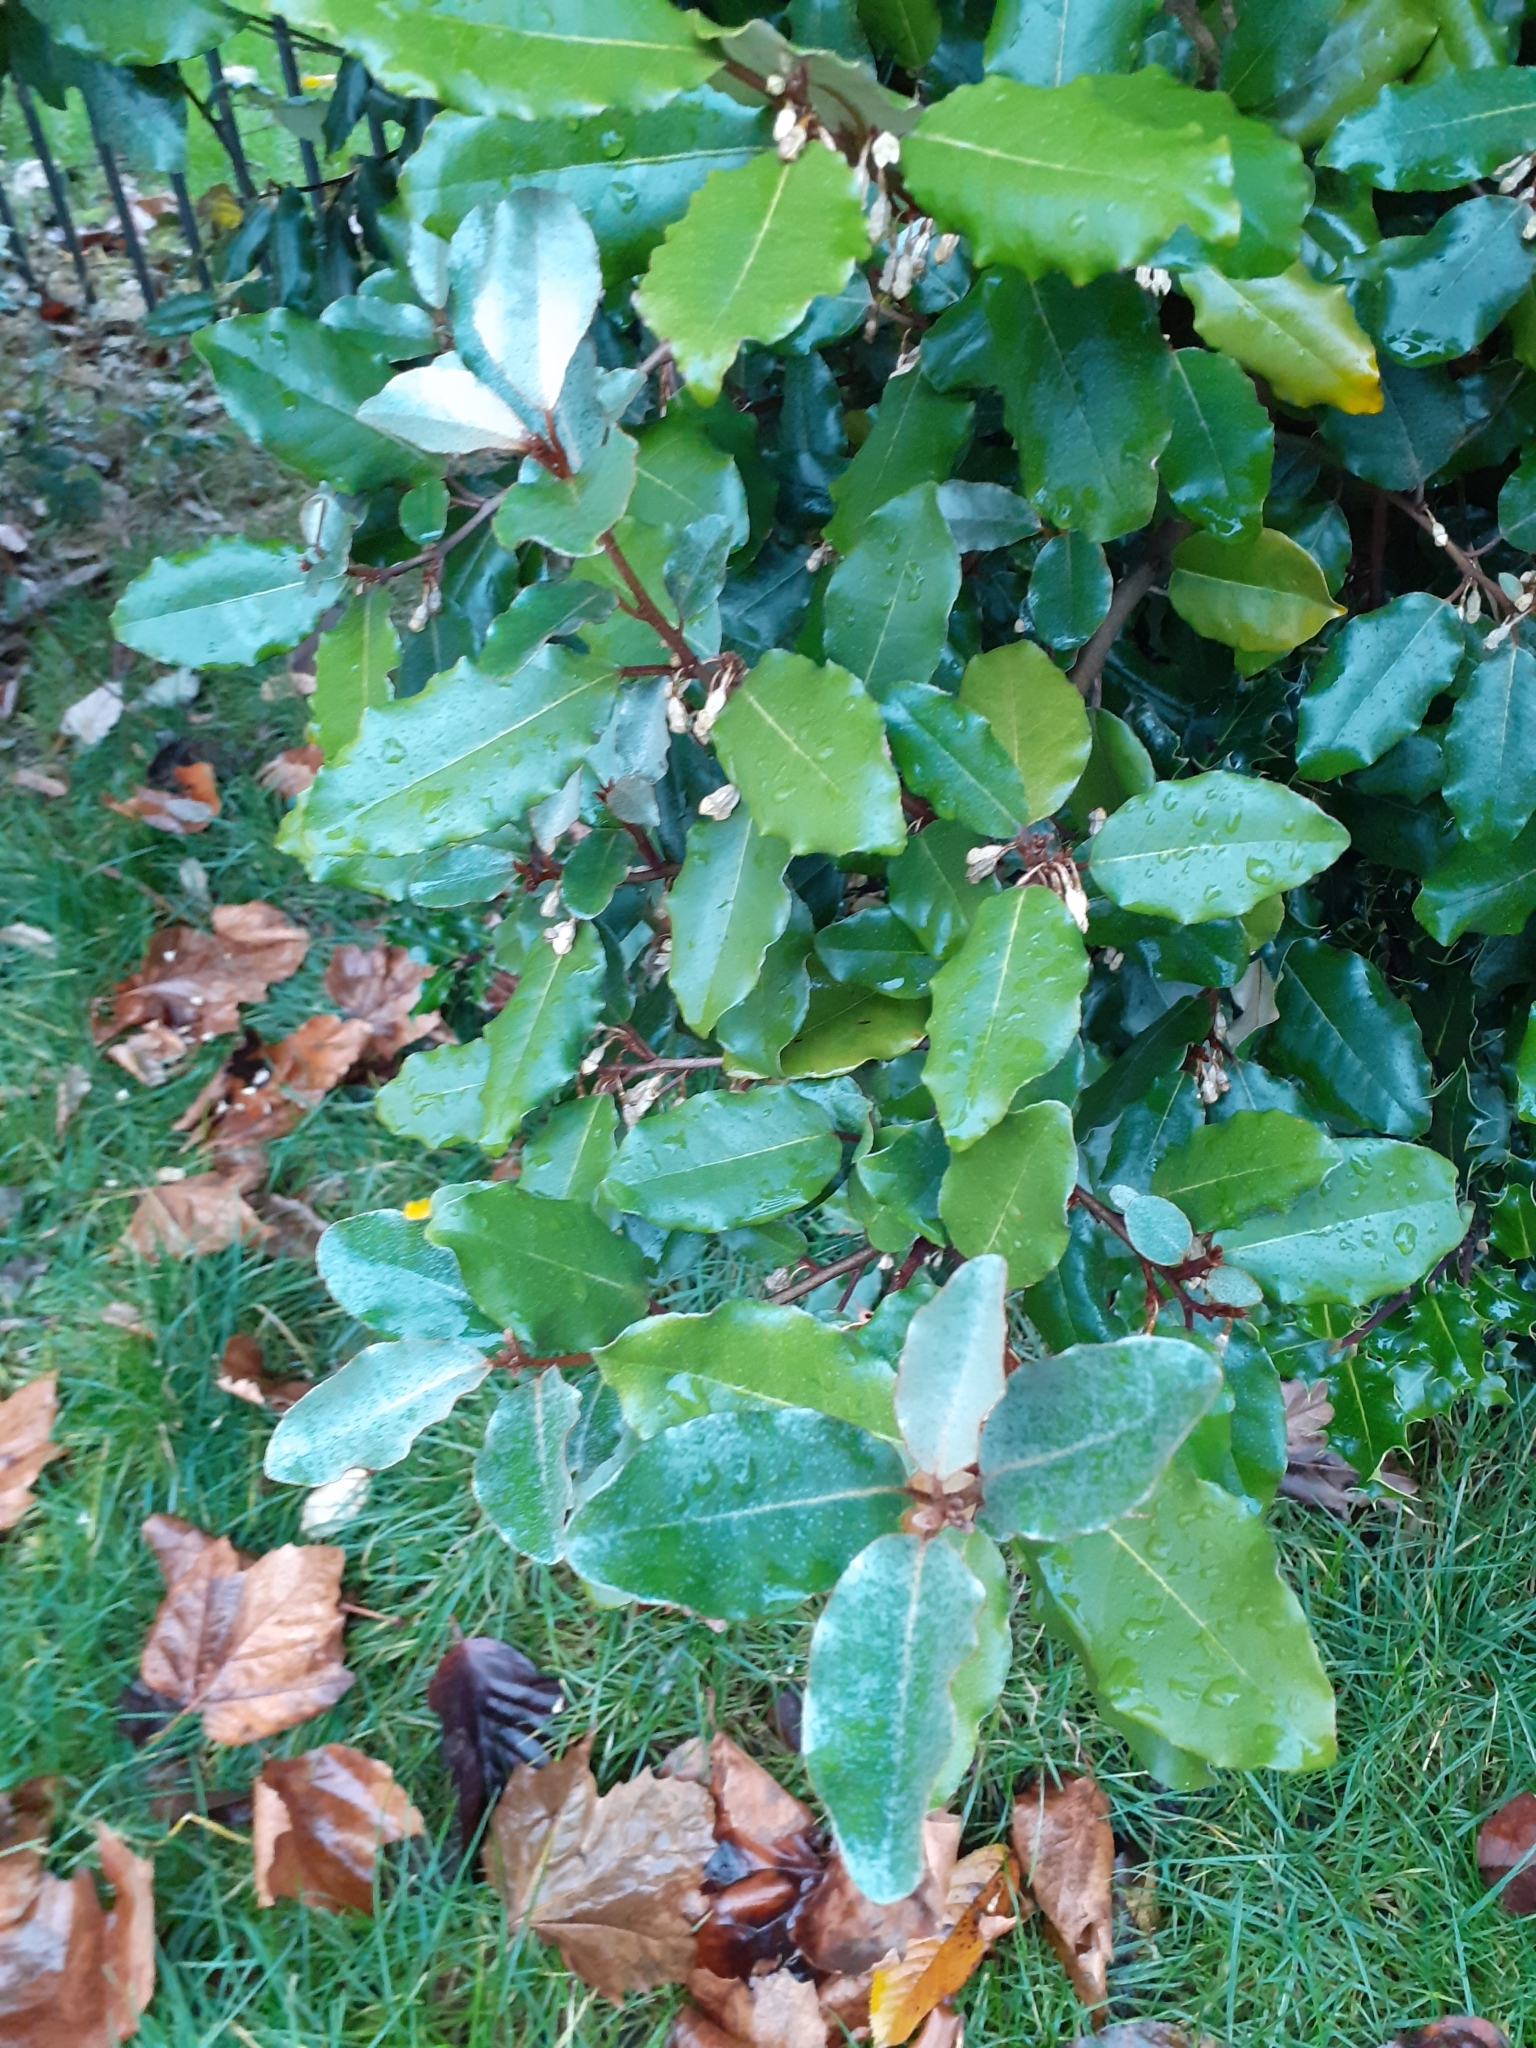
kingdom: Plantae
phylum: Tracheophyta
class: Magnoliopsida
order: Rosales
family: Elaeagnaceae
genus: Elaeagnus
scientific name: Elaeagnus pungens
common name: Spiny oleaster
